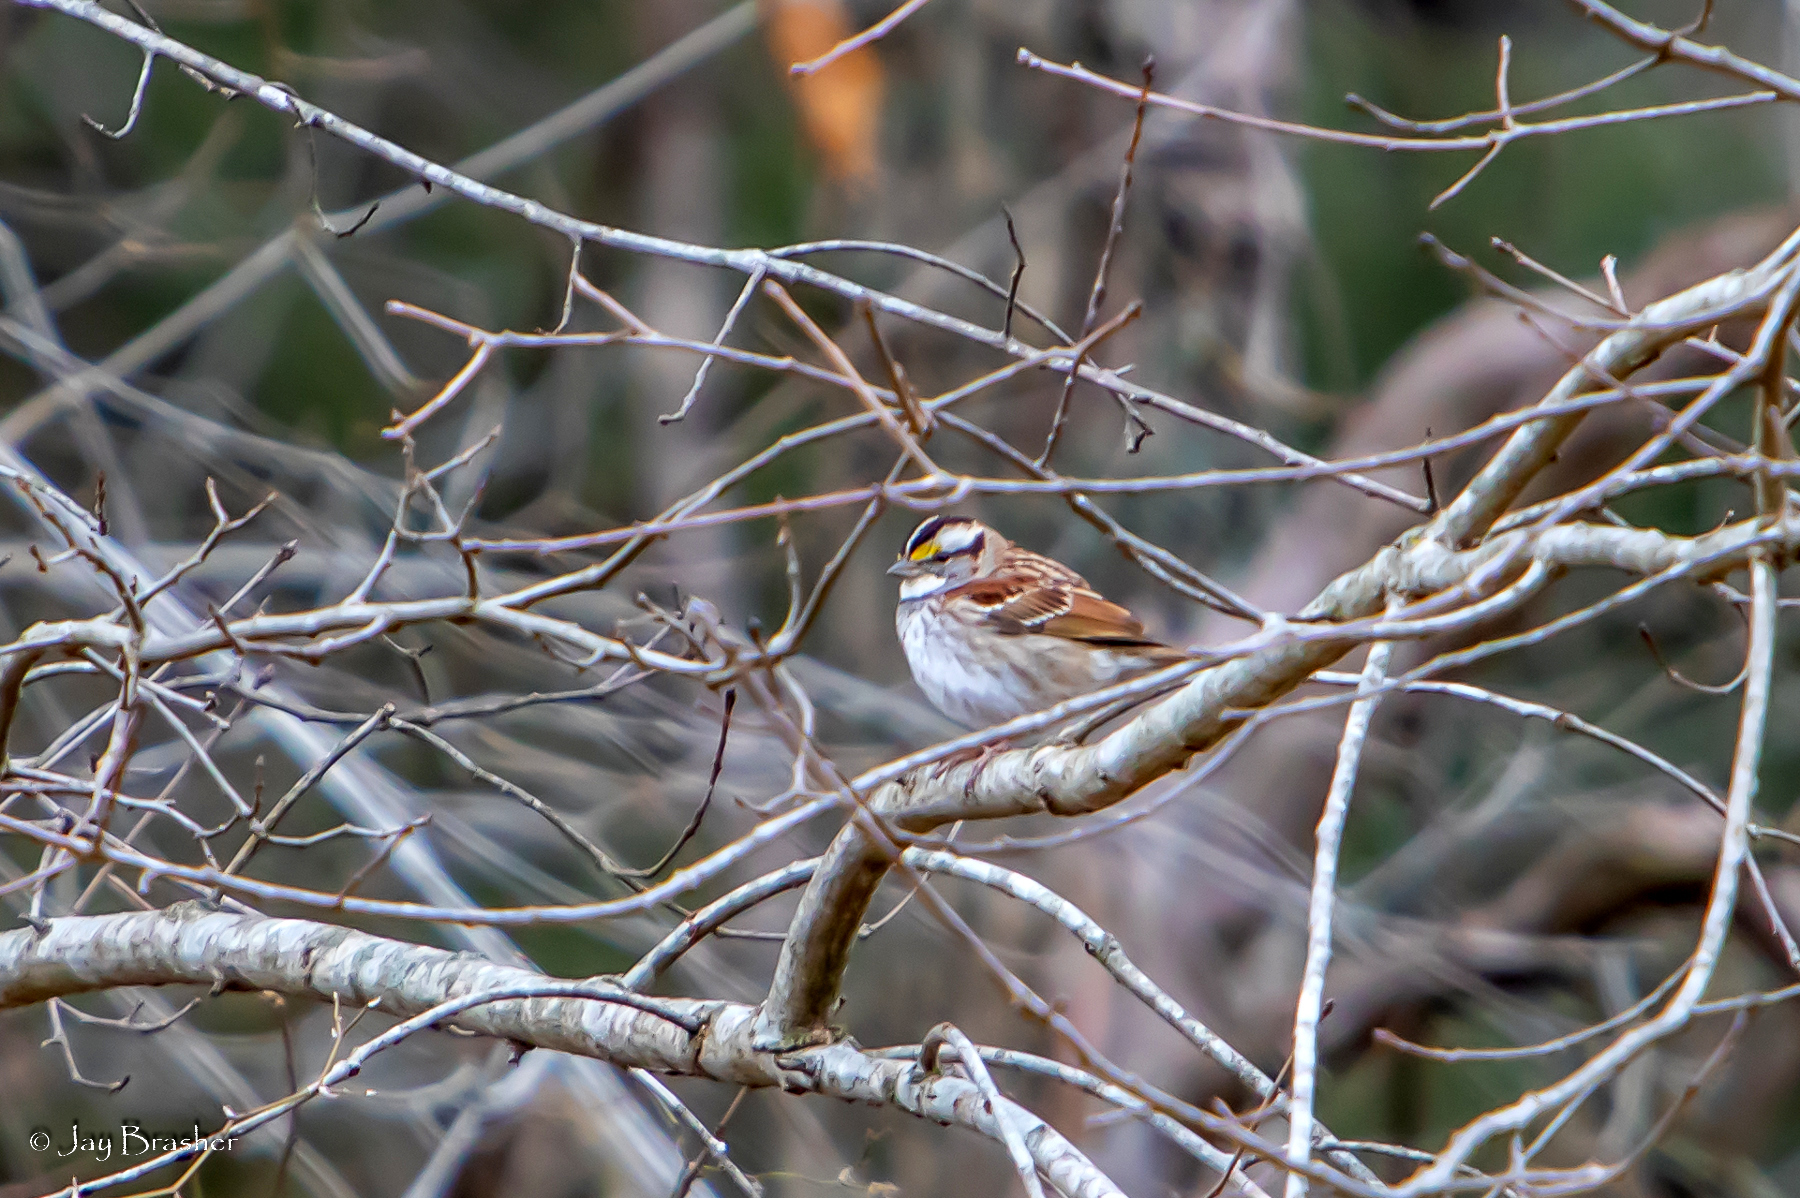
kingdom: Animalia
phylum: Chordata
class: Aves
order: Passeriformes
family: Passerellidae
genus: Zonotrichia
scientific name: Zonotrichia albicollis
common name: White-throated sparrow
